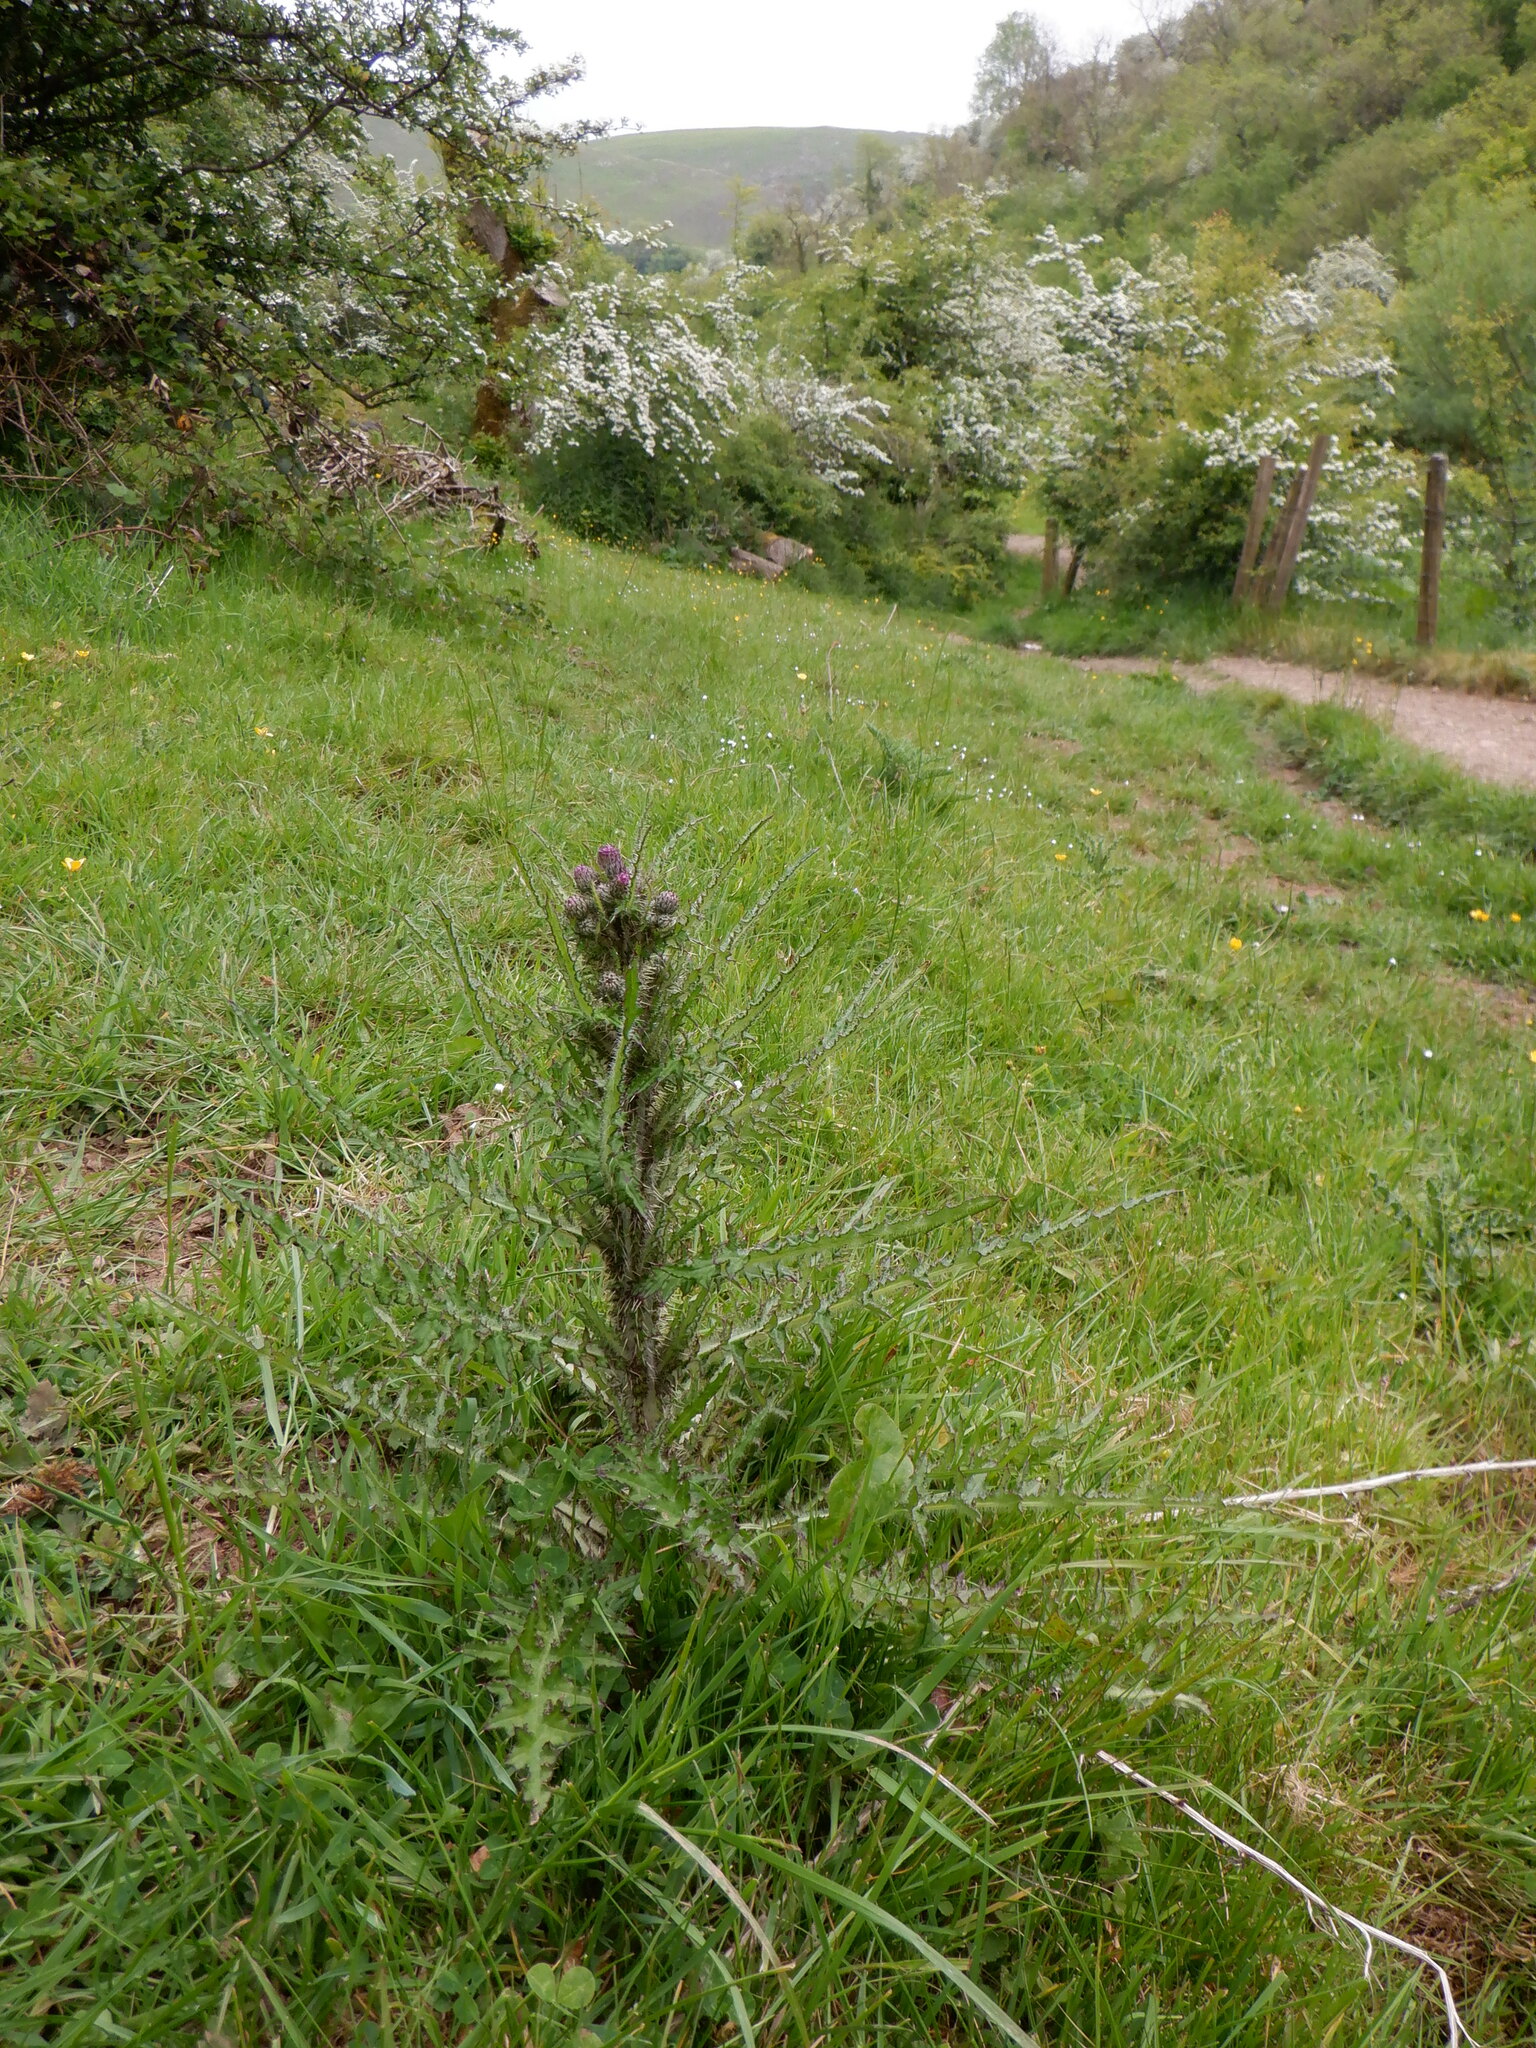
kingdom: Plantae
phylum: Tracheophyta
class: Magnoliopsida
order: Asterales
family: Asteraceae
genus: Cirsium
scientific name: Cirsium palustre
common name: Marsh thistle
